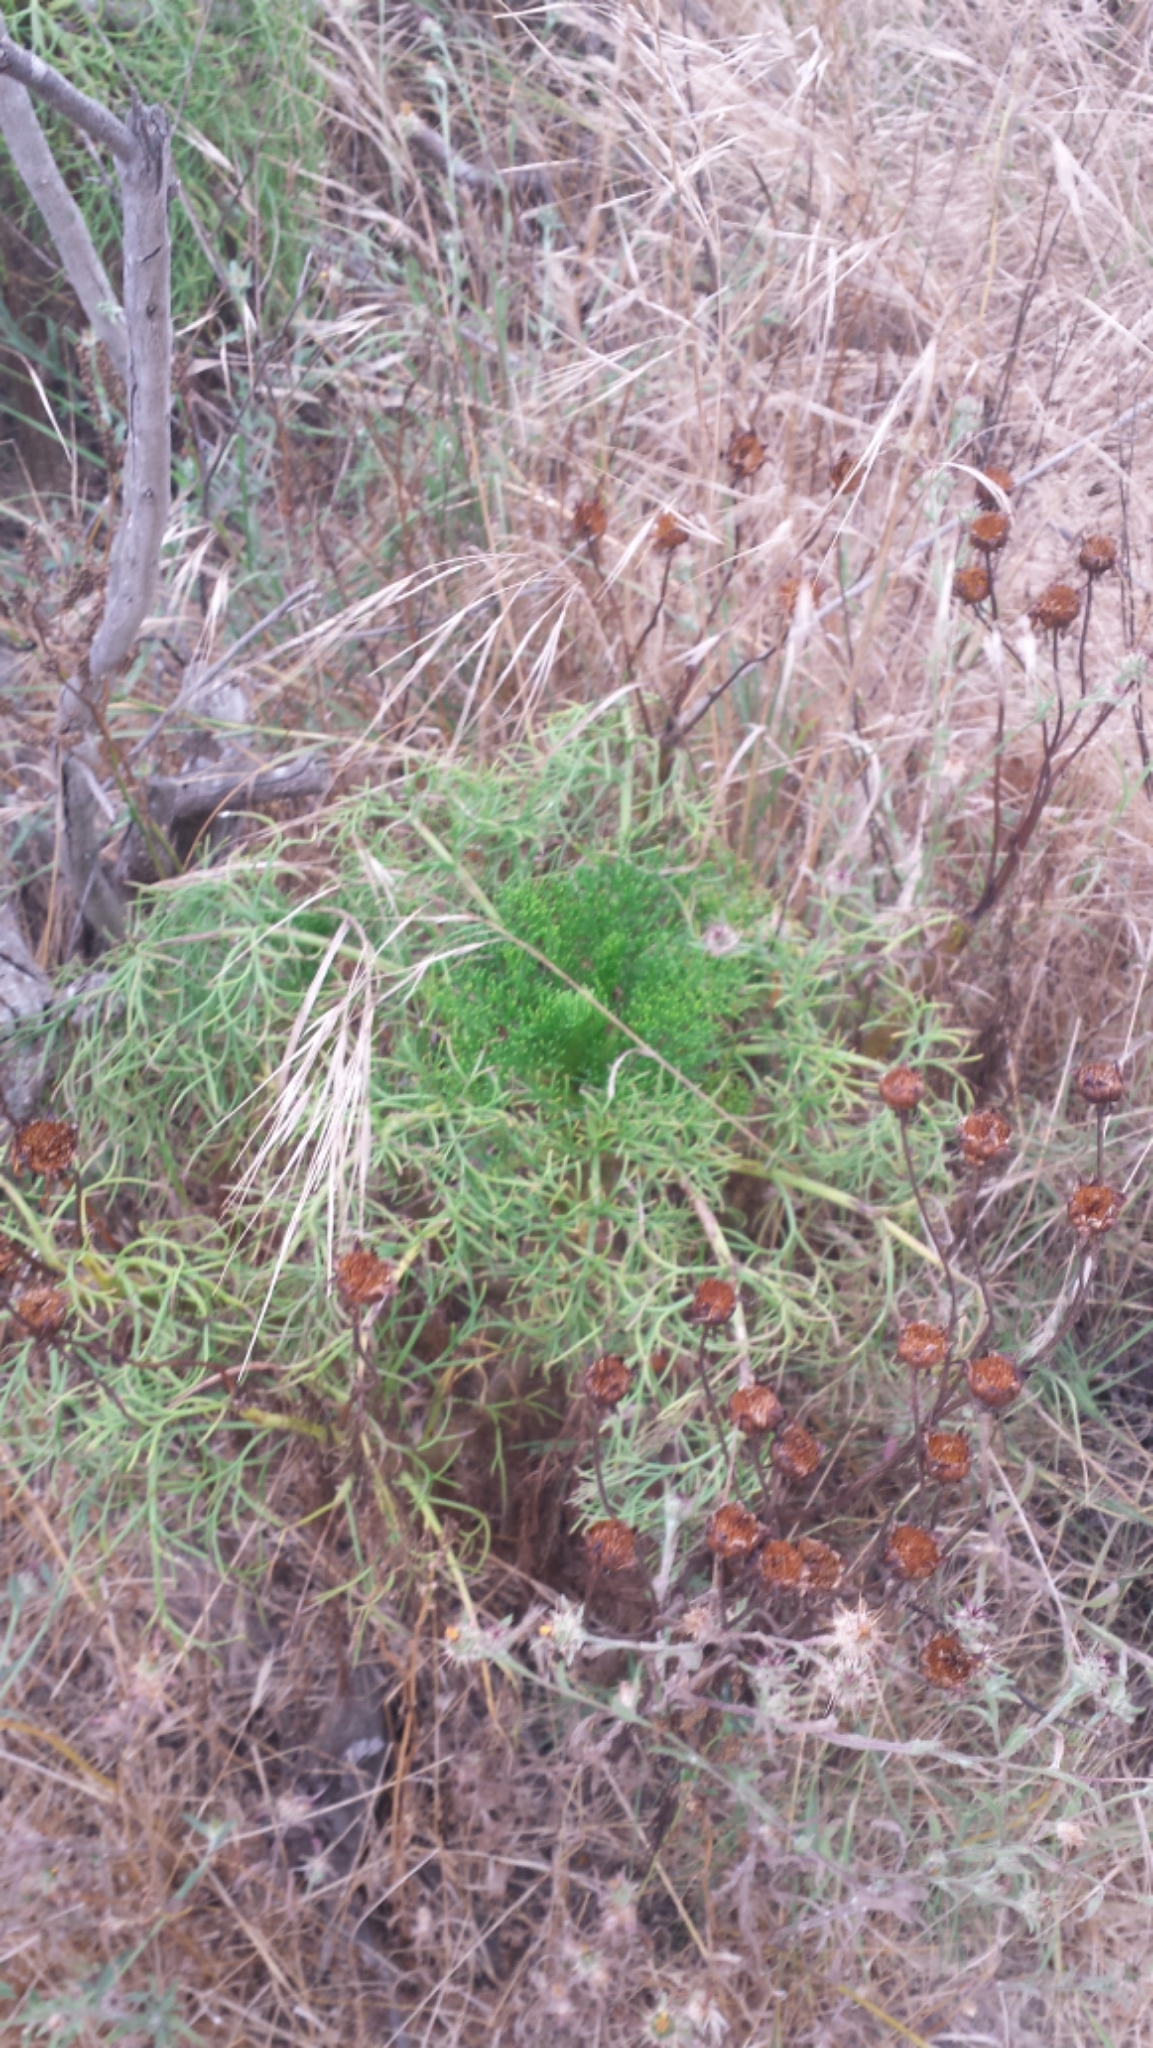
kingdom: Plantae
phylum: Tracheophyta
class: Magnoliopsida
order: Asterales
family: Asteraceae
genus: Coreopsis
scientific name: Coreopsis gigantea
